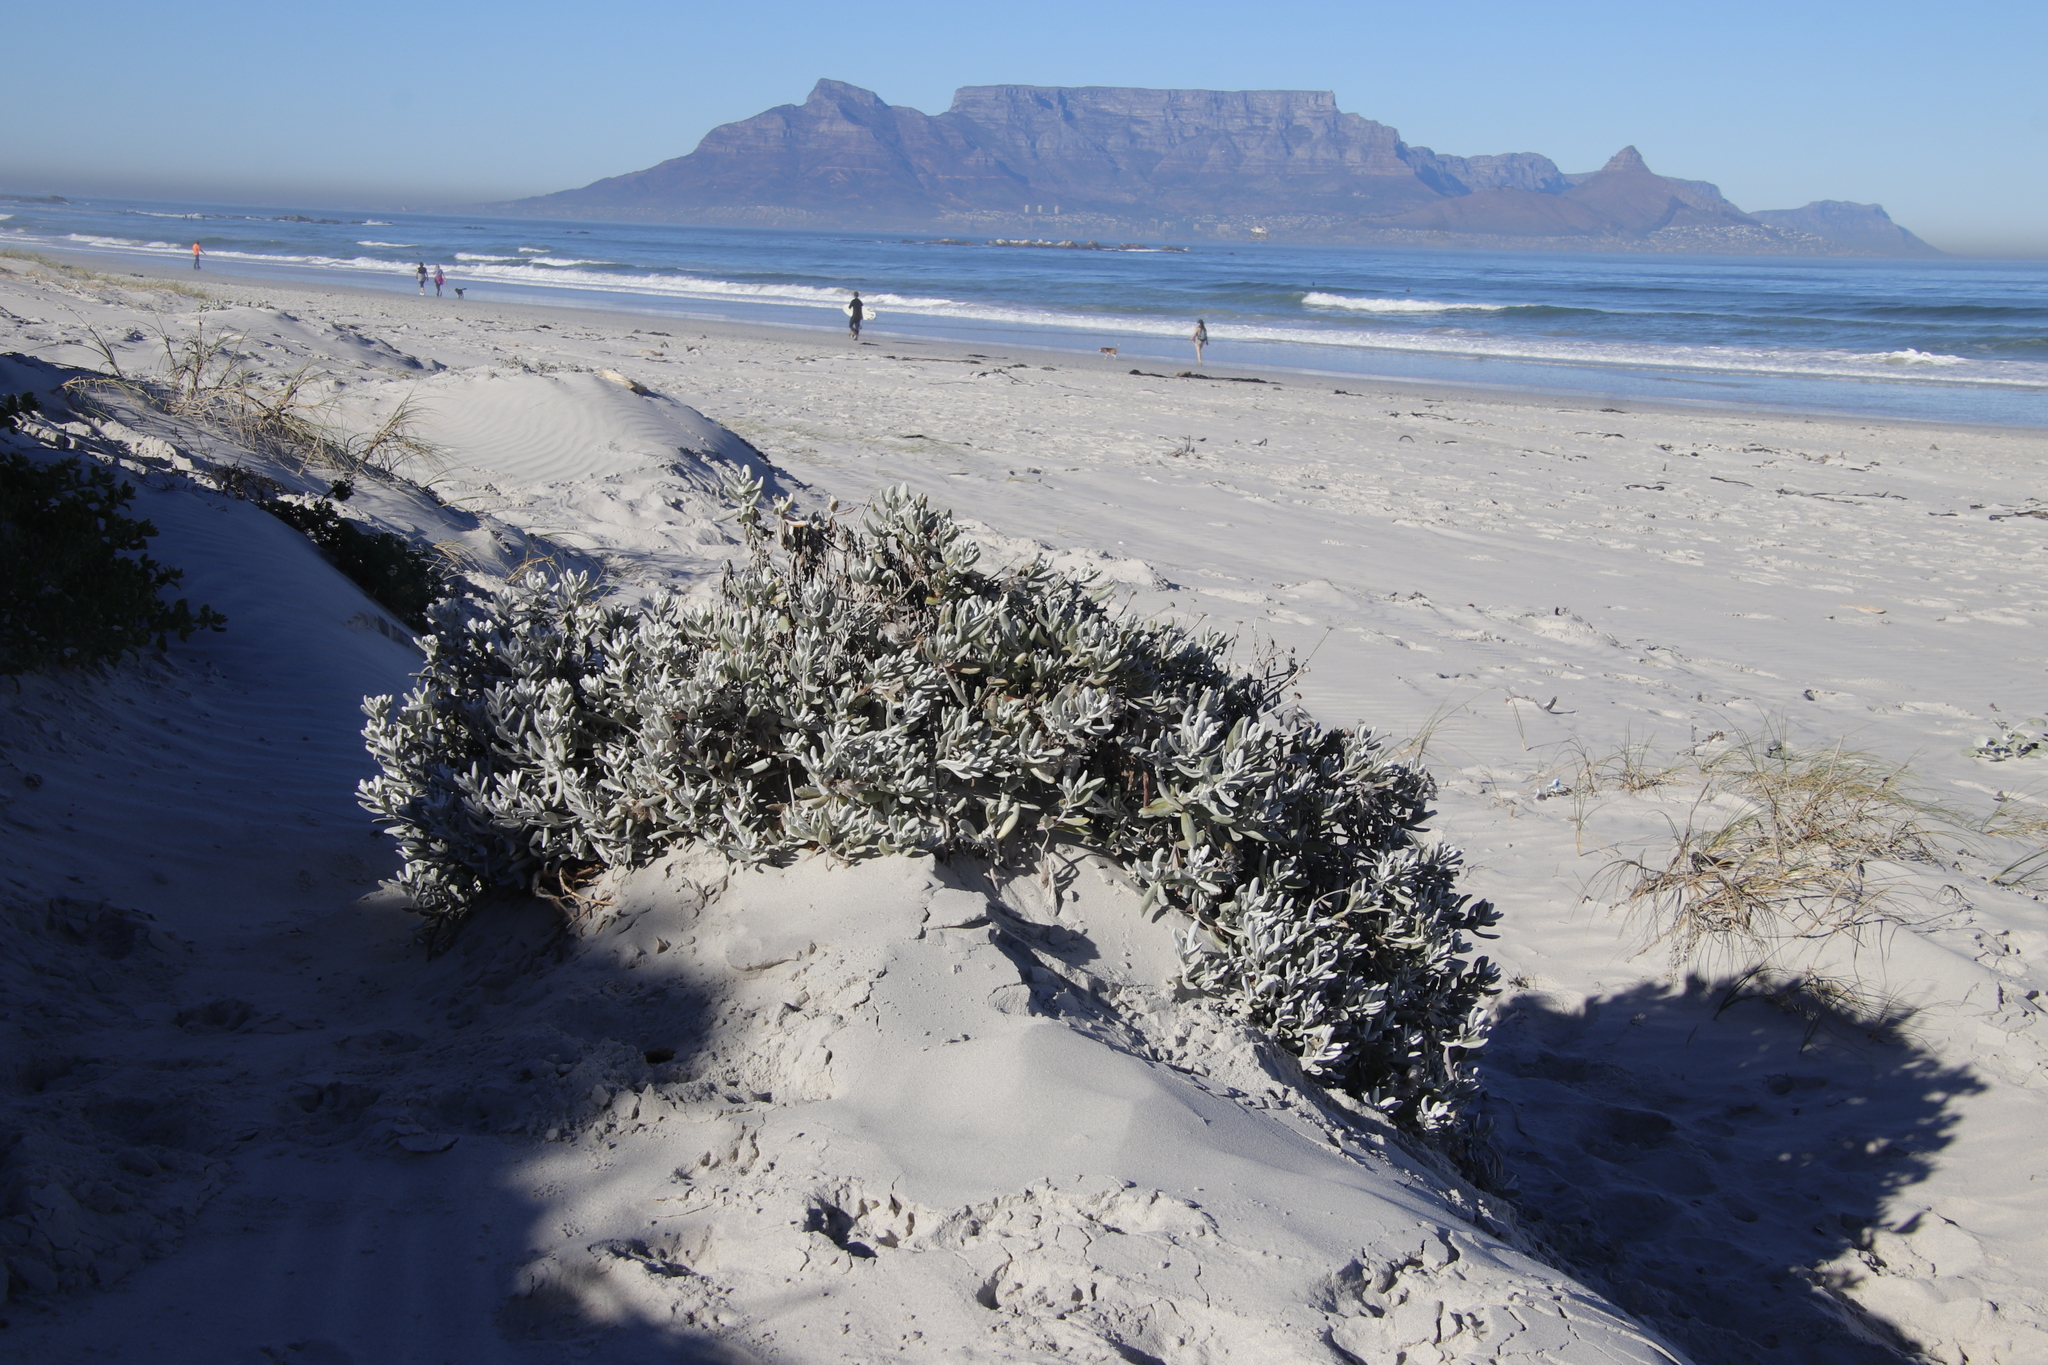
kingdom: Plantae
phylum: Tracheophyta
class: Magnoliopsida
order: Asterales
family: Asteraceae
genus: Didelta
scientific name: Didelta carnosa
